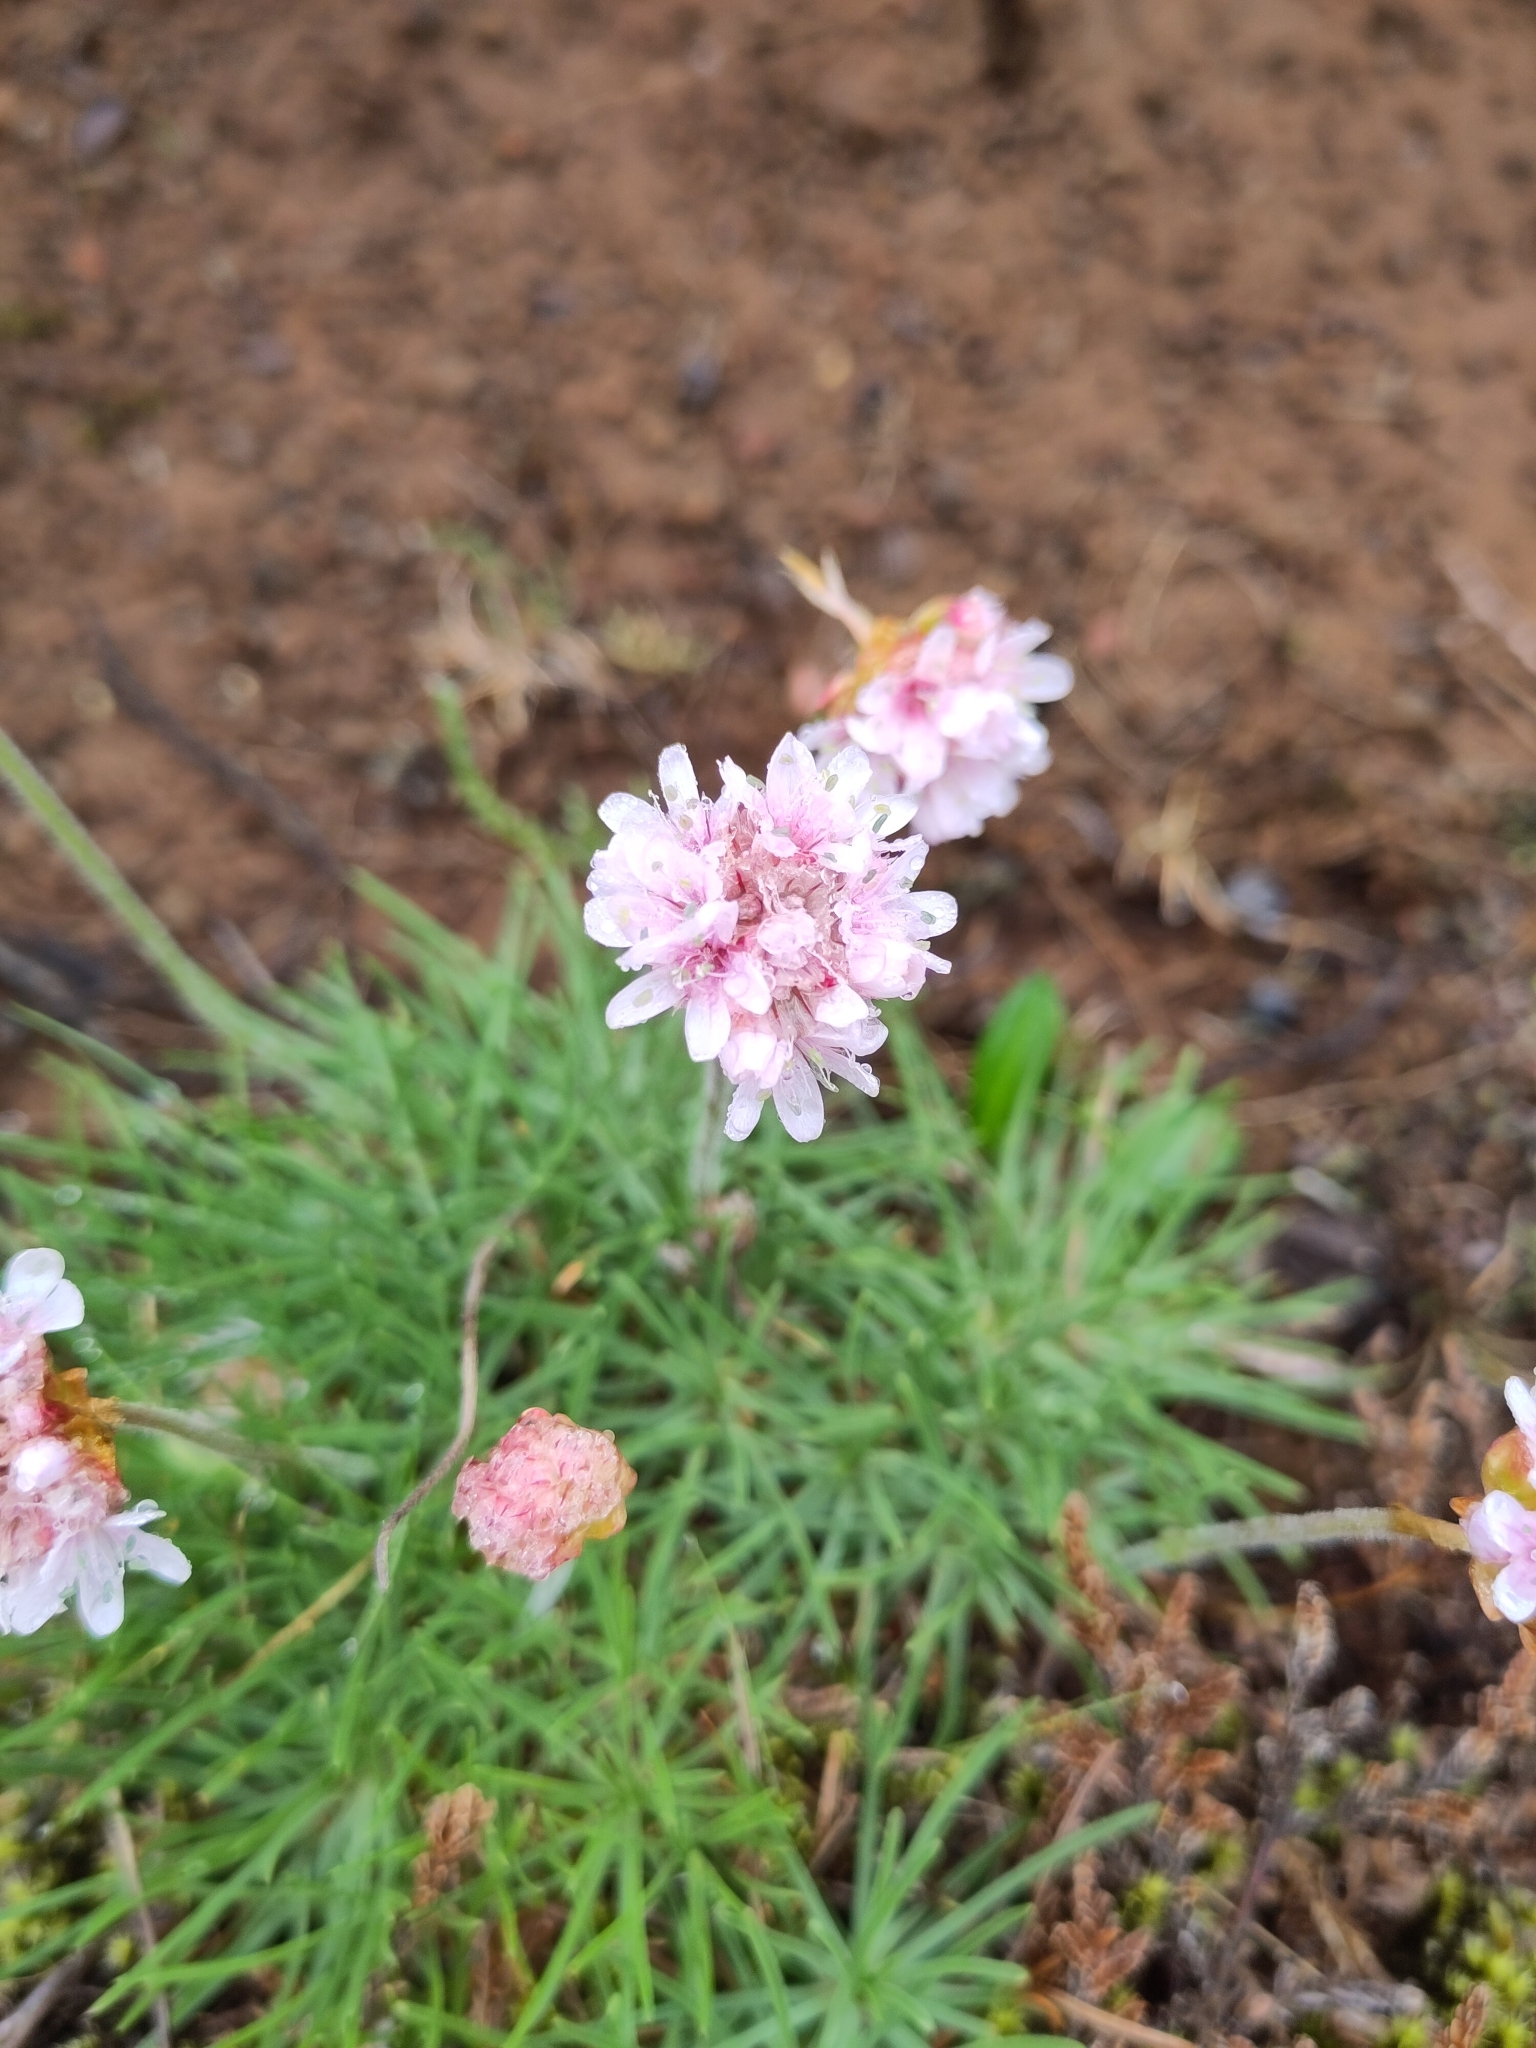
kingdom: Plantae
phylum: Tracheophyta
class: Magnoliopsida
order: Caryophyllales
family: Plumbaginaceae
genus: Armeria
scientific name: Armeria maritima
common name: Thrift
